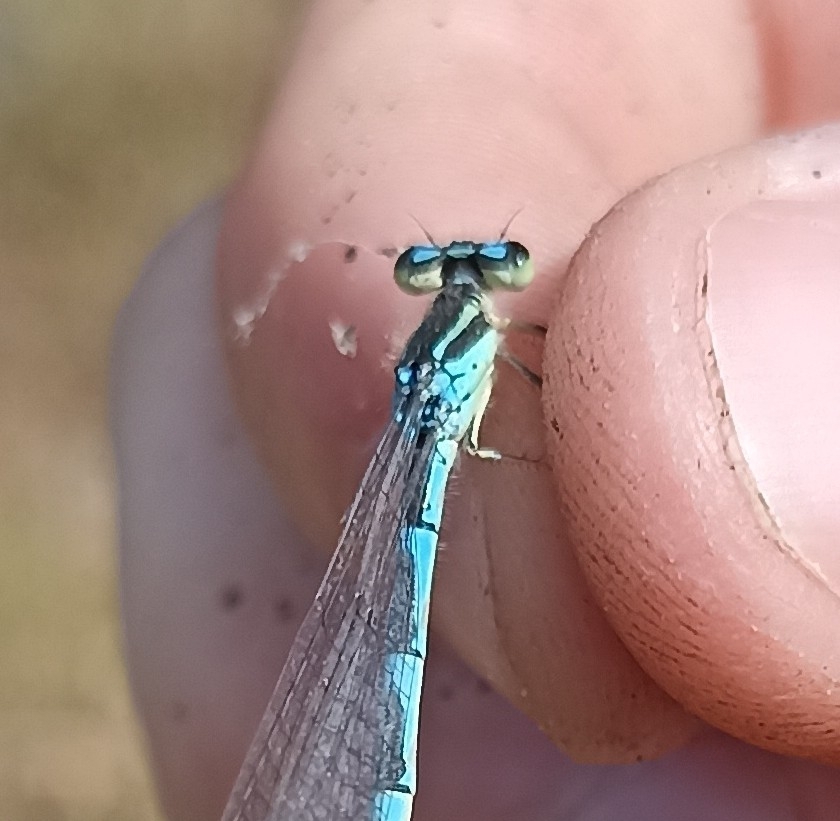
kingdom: Animalia
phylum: Arthropoda
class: Insecta
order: Odonata
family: Coenagrionidae
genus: Coenagrion
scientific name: Coenagrion scitulum
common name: Dainty bluet
